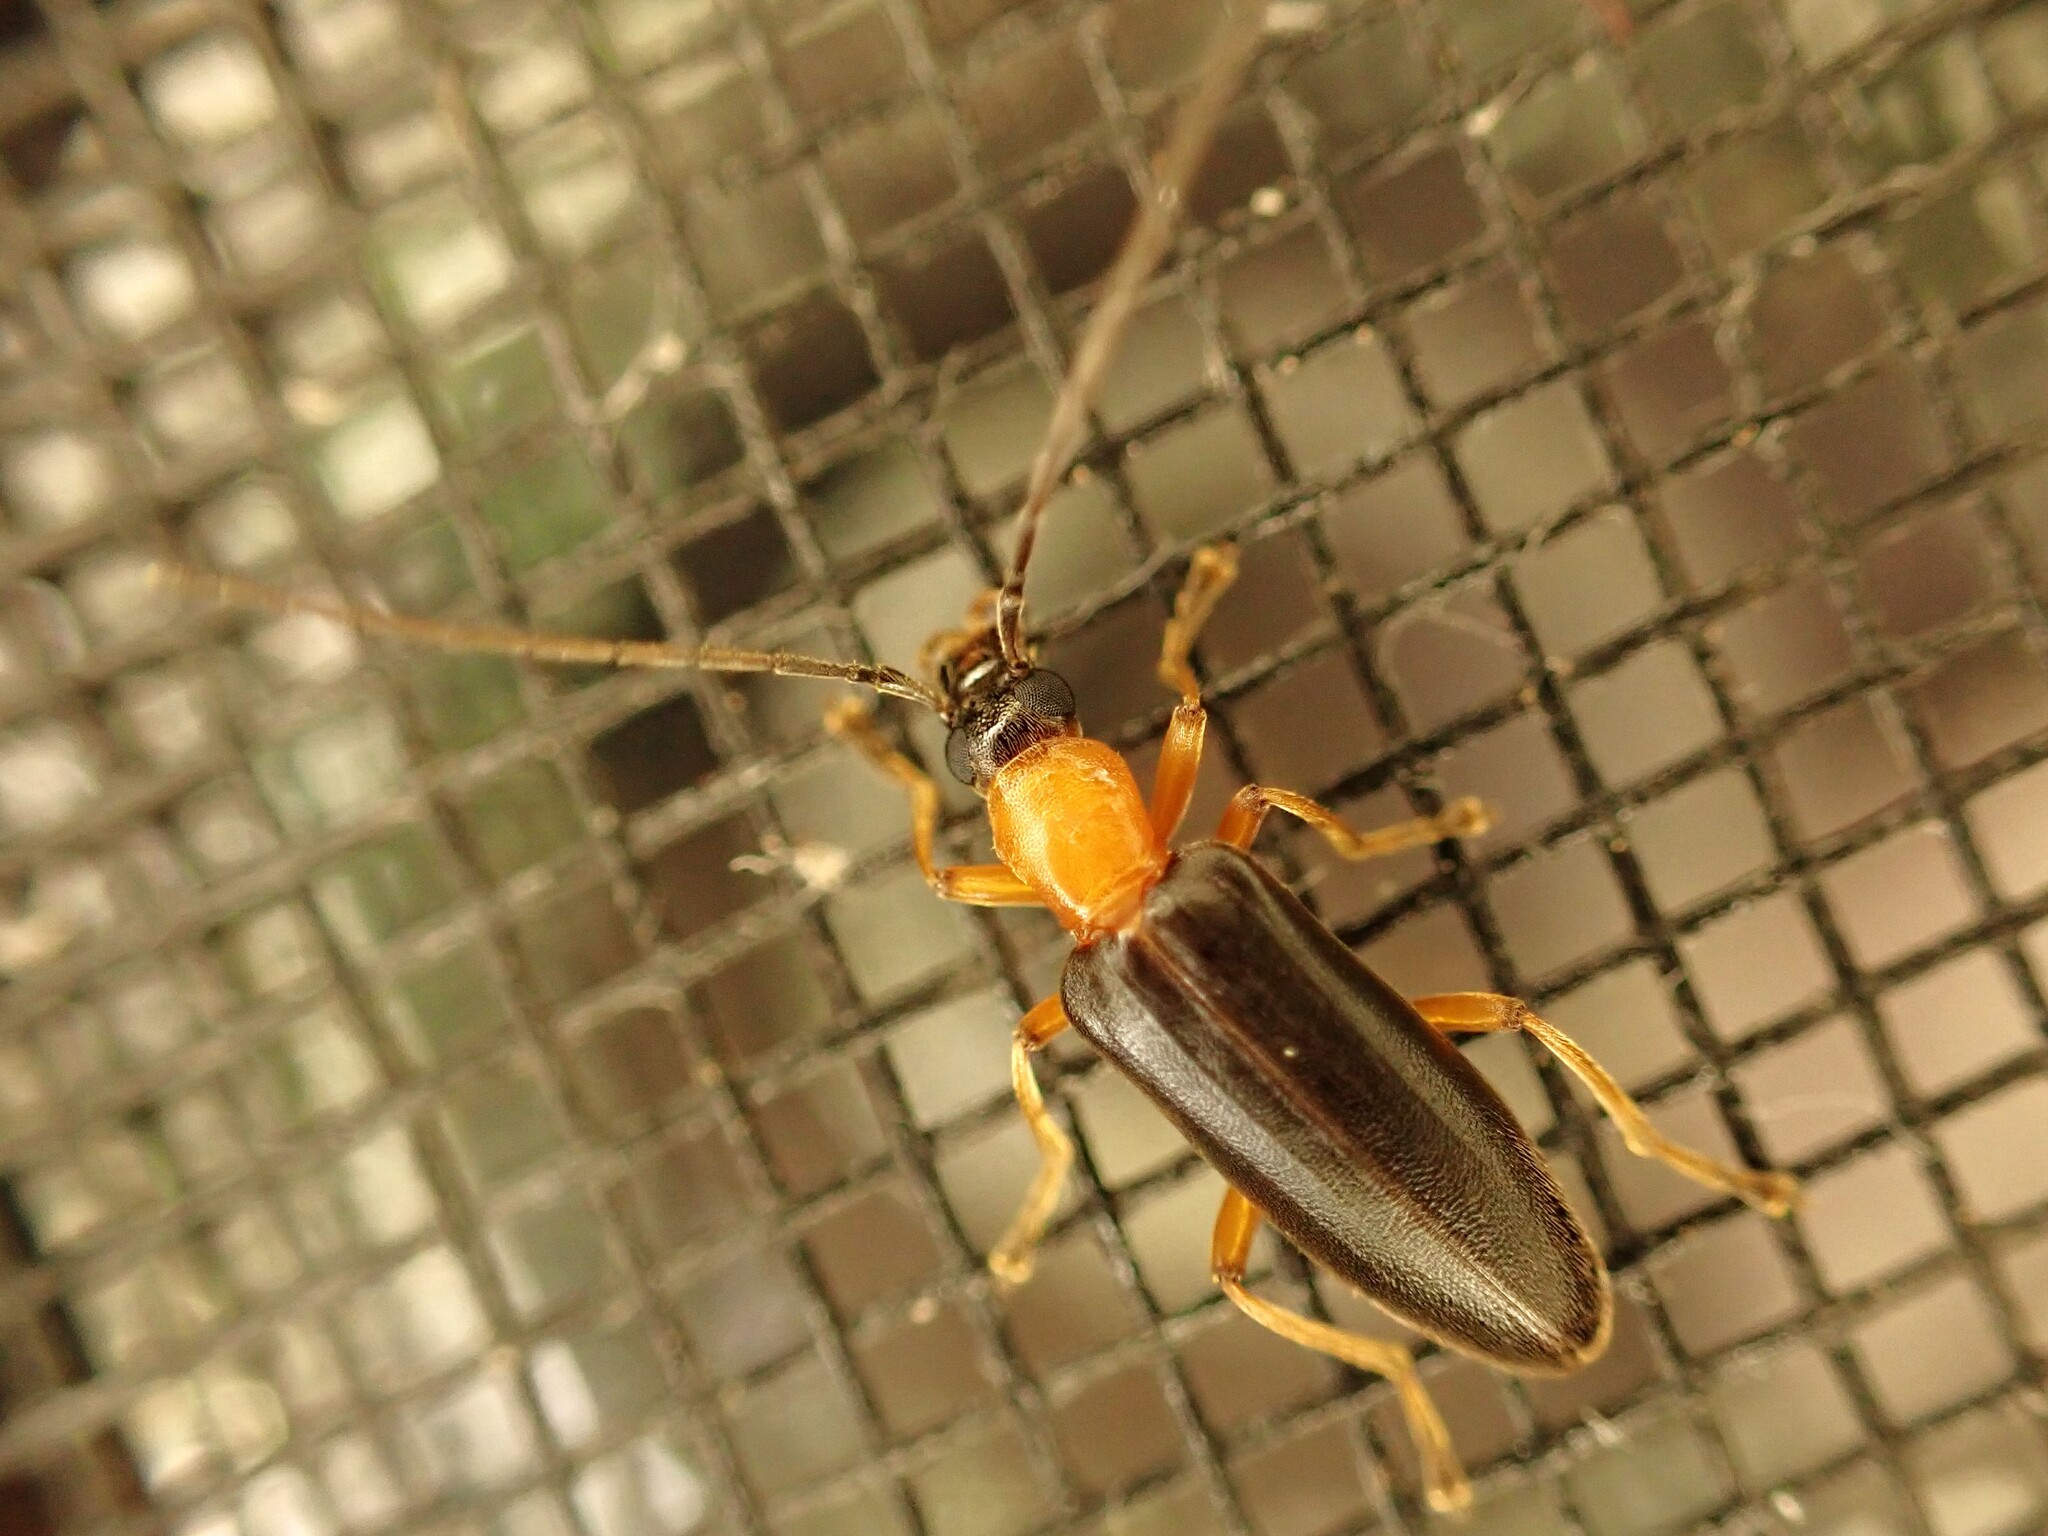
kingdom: Animalia
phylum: Arthropoda
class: Insecta
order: Coleoptera
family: Oedemeridae
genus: Ananca
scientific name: Ananca bicolor
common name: Red-black false blister-beetle
